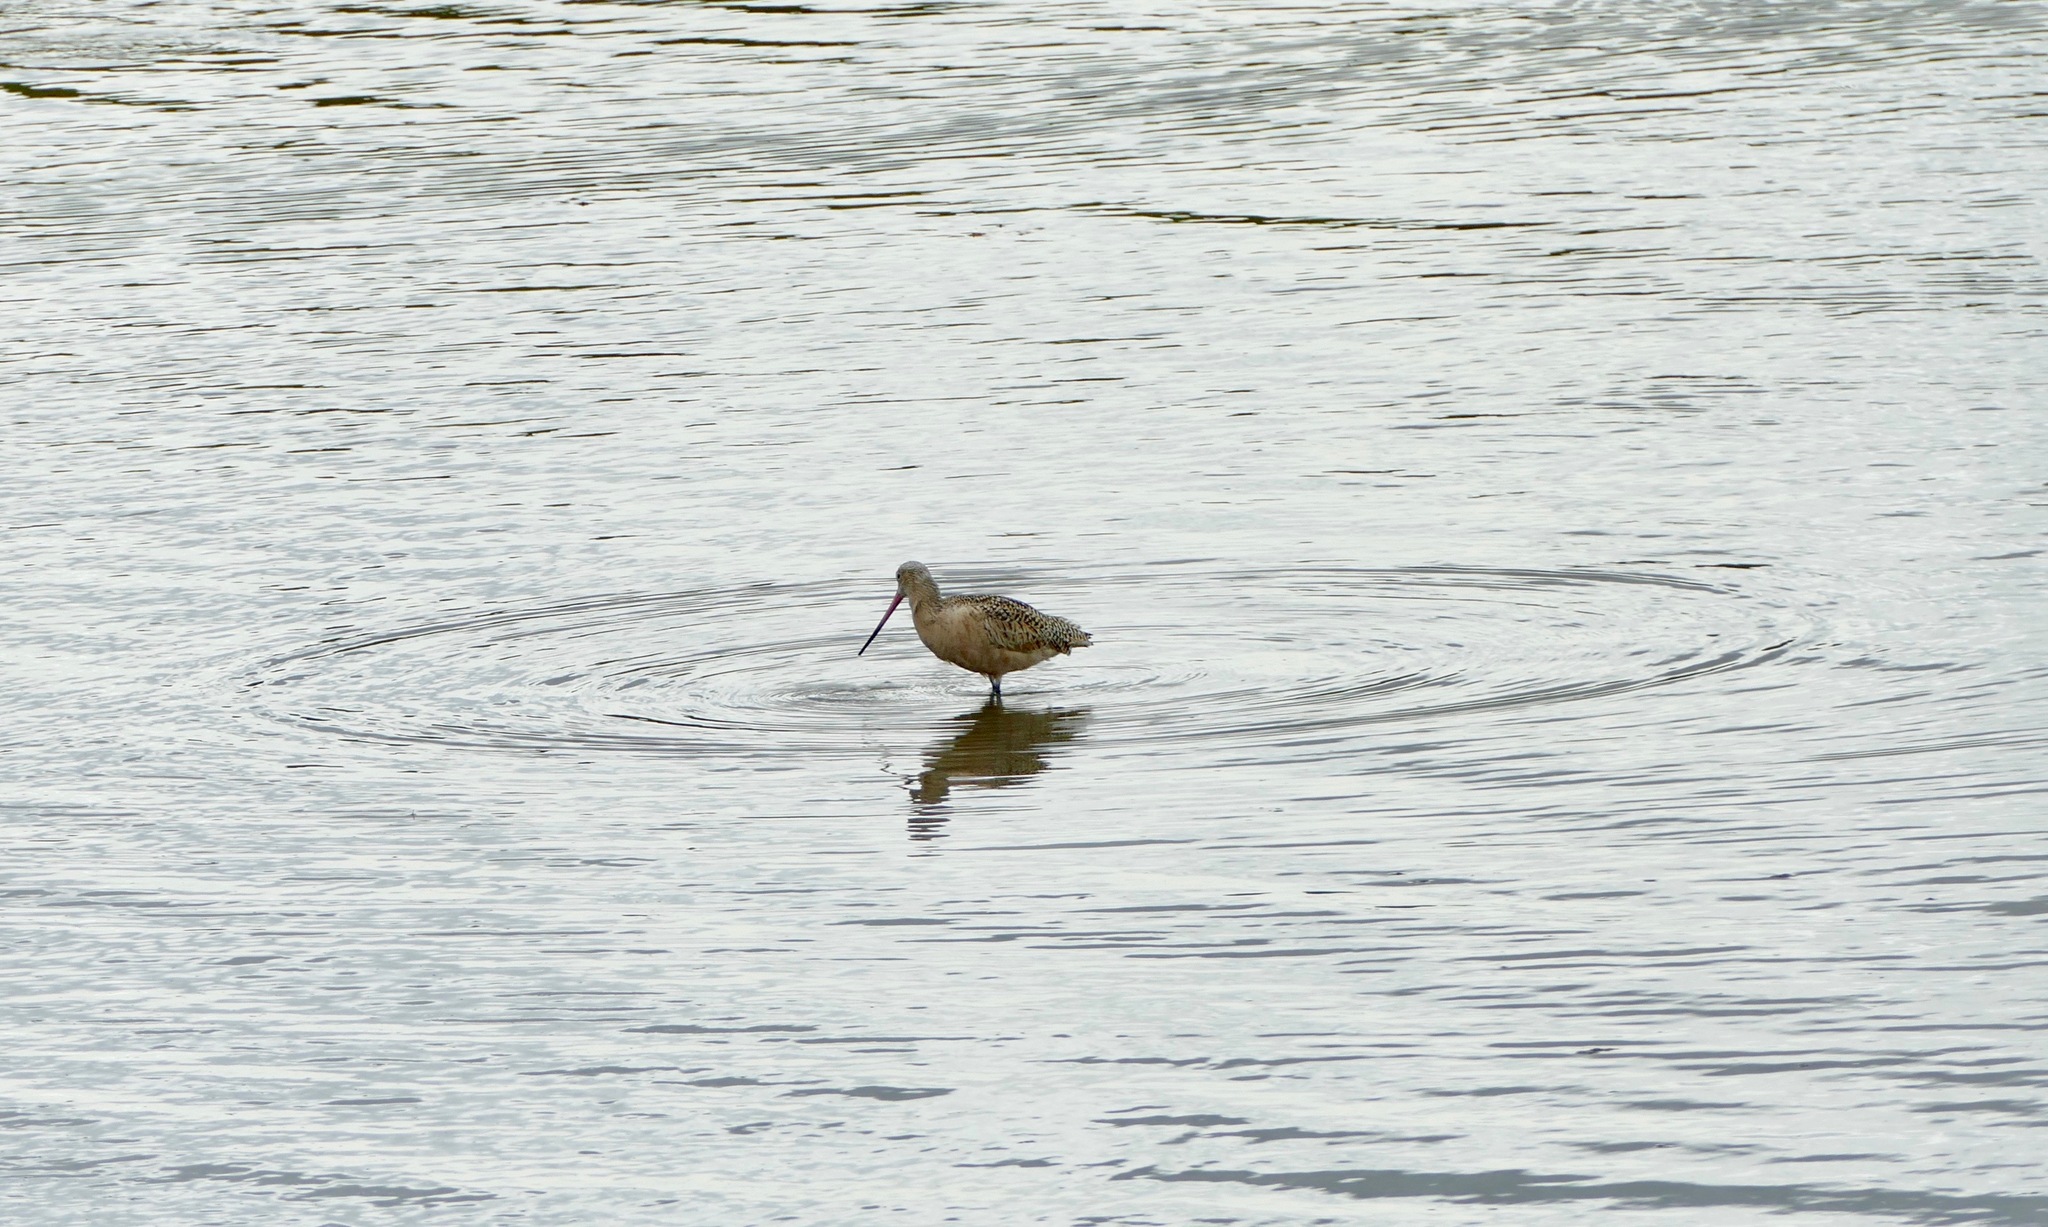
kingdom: Animalia
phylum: Chordata
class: Aves
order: Charadriiformes
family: Scolopacidae
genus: Limosa
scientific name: Limosa fedoa
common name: Marbled godwit
